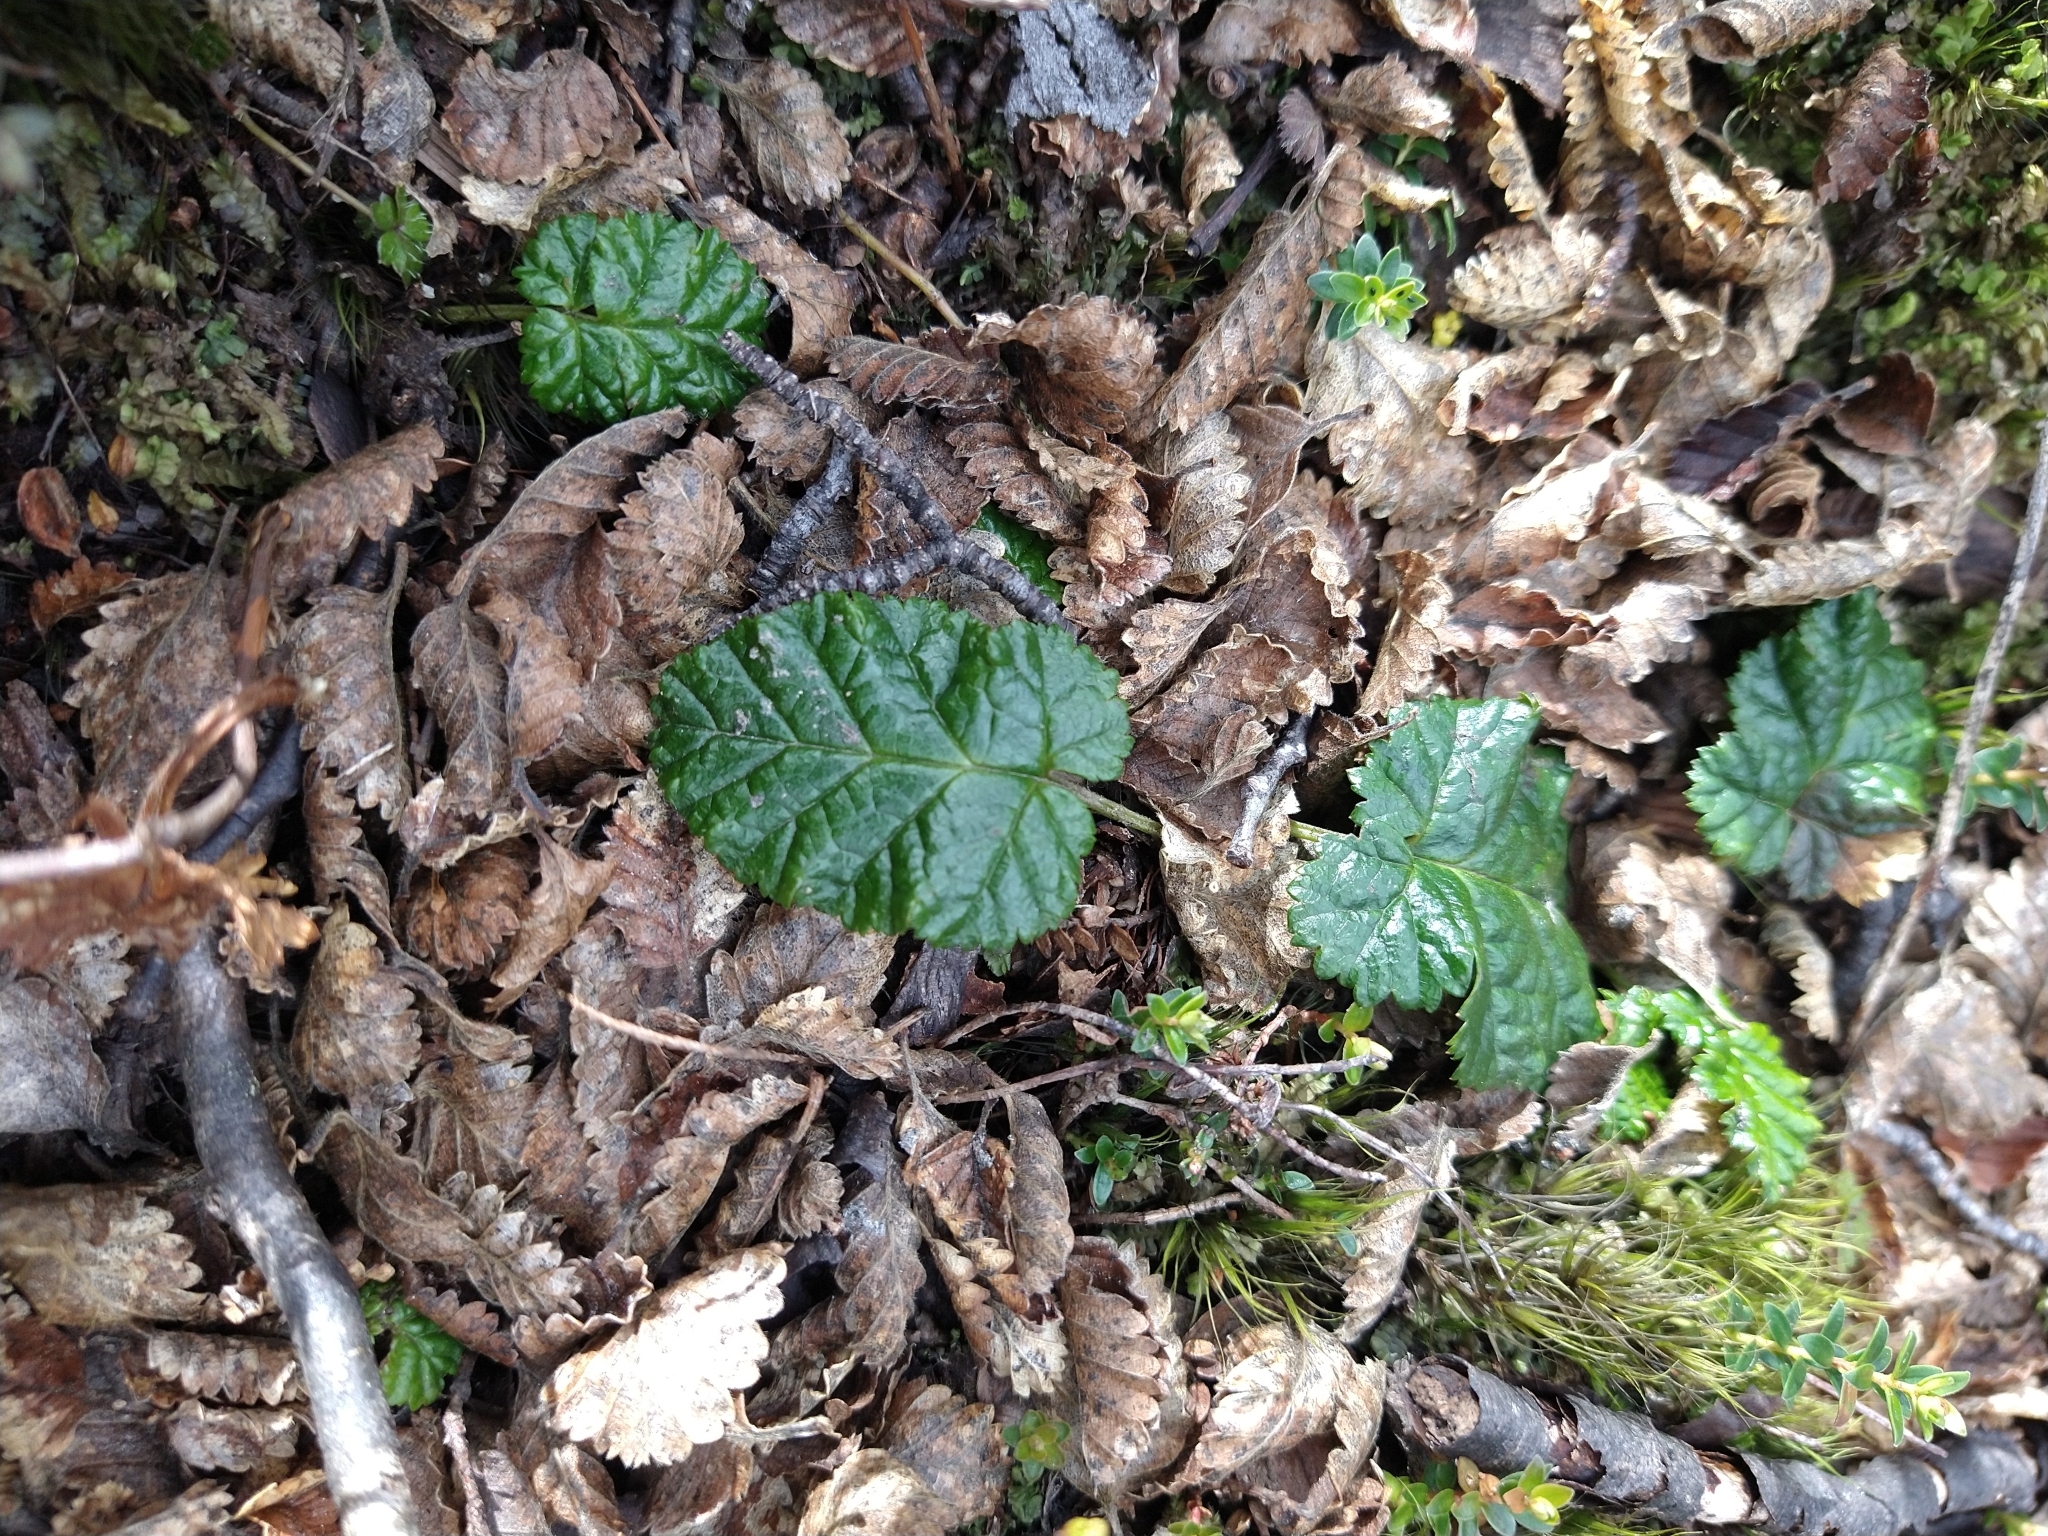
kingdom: Plantae
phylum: Tracheophyta
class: Magnoliopsida
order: Rosales
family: Rosaceae
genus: Rubus
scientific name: Rubus geoides
